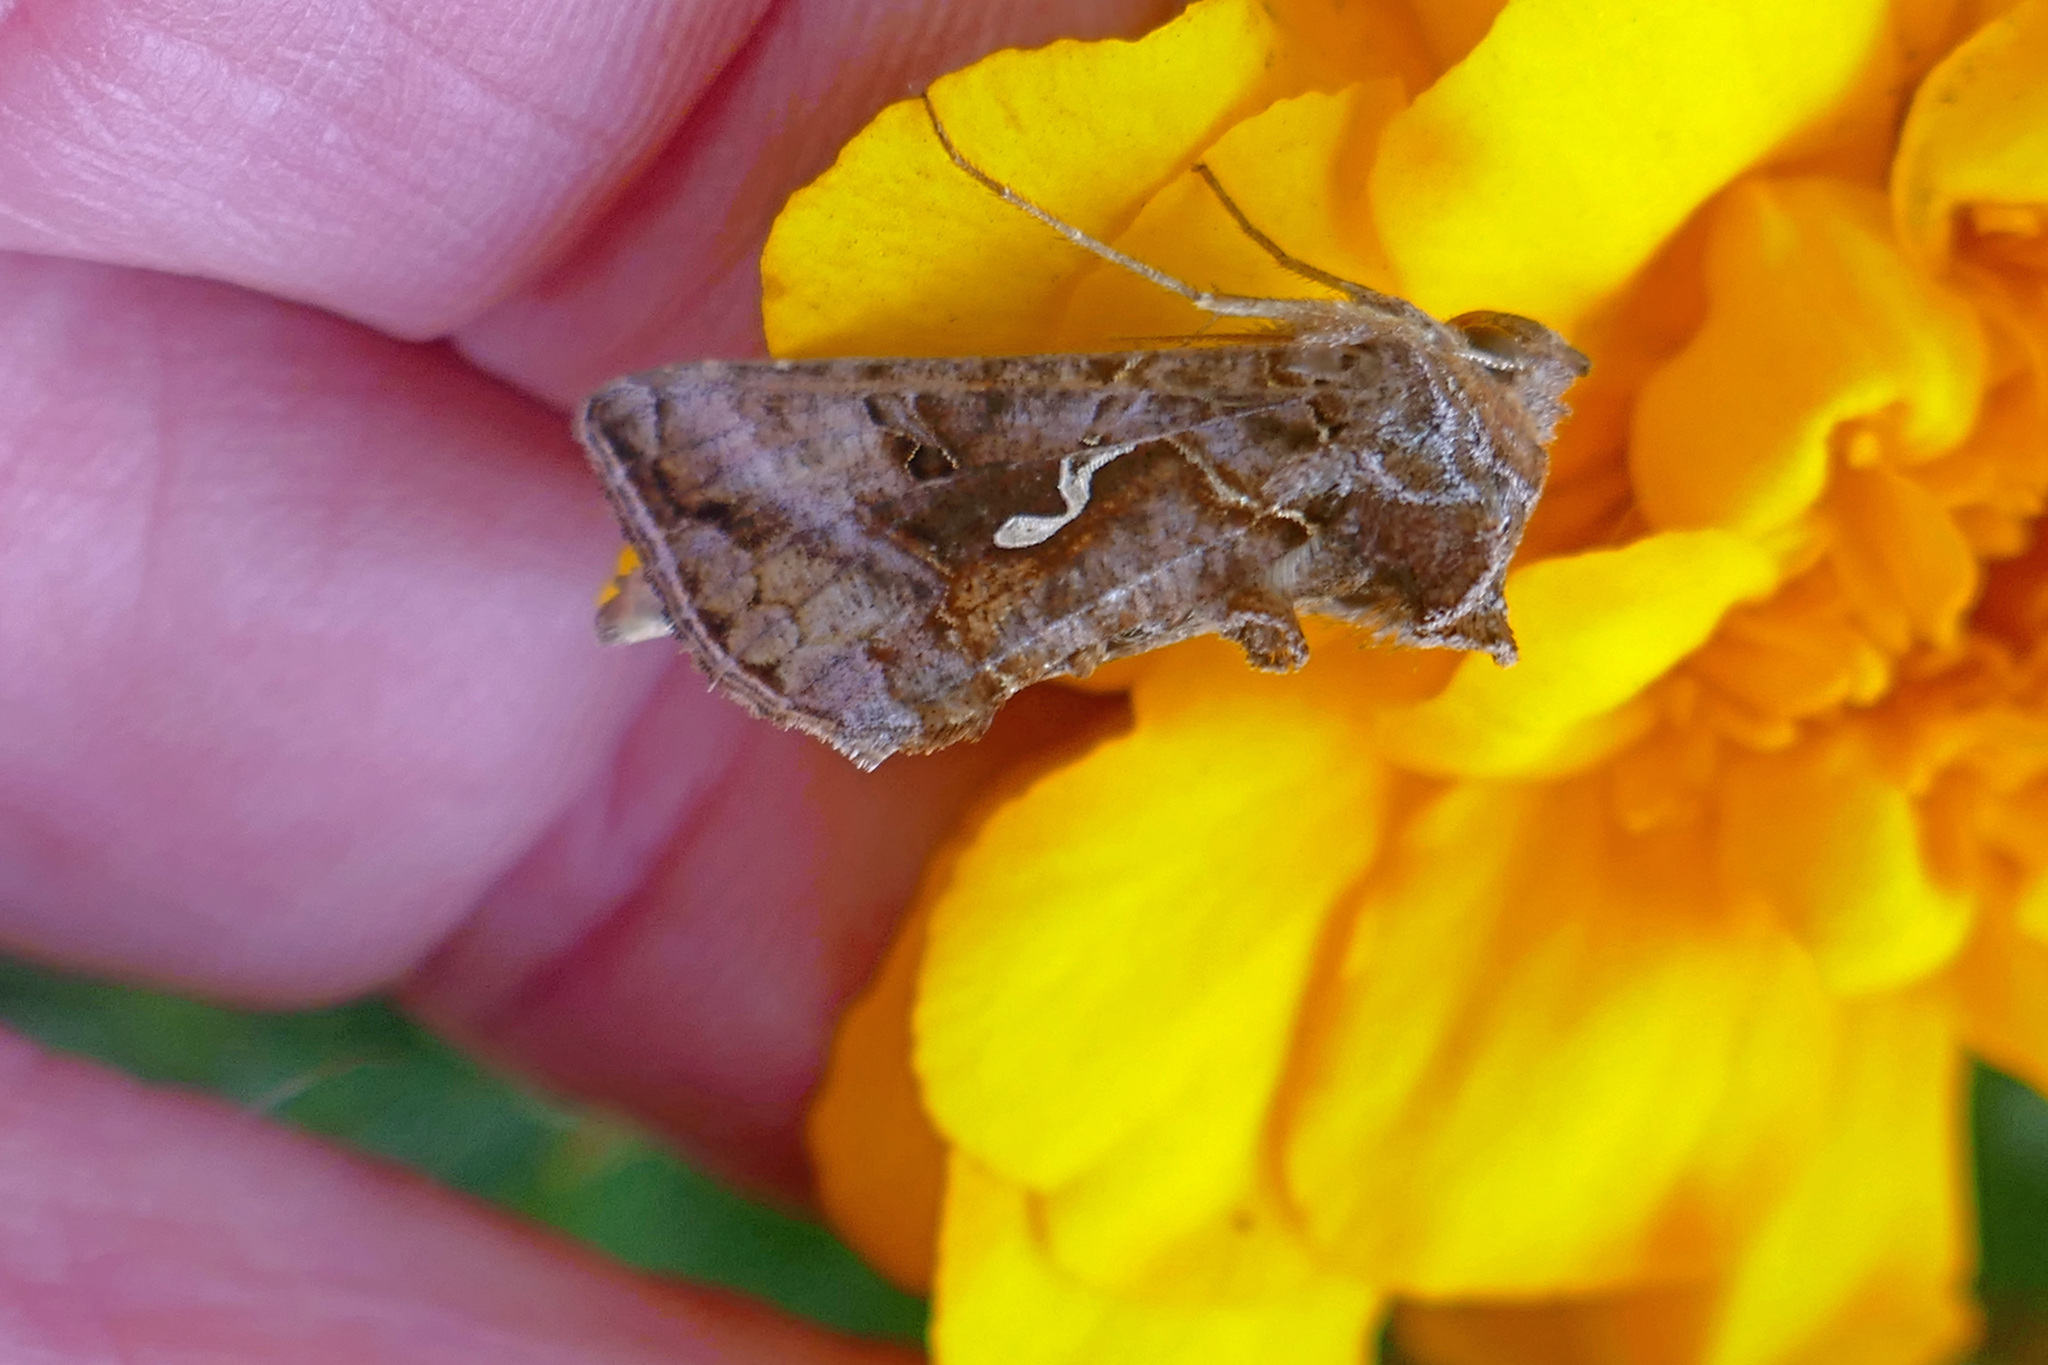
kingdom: Animalia
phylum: Arthropoda
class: Insecta
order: Lepidoptera
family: Noctuidae
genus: Autographa
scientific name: Autographa precationis
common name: Common looper moth
